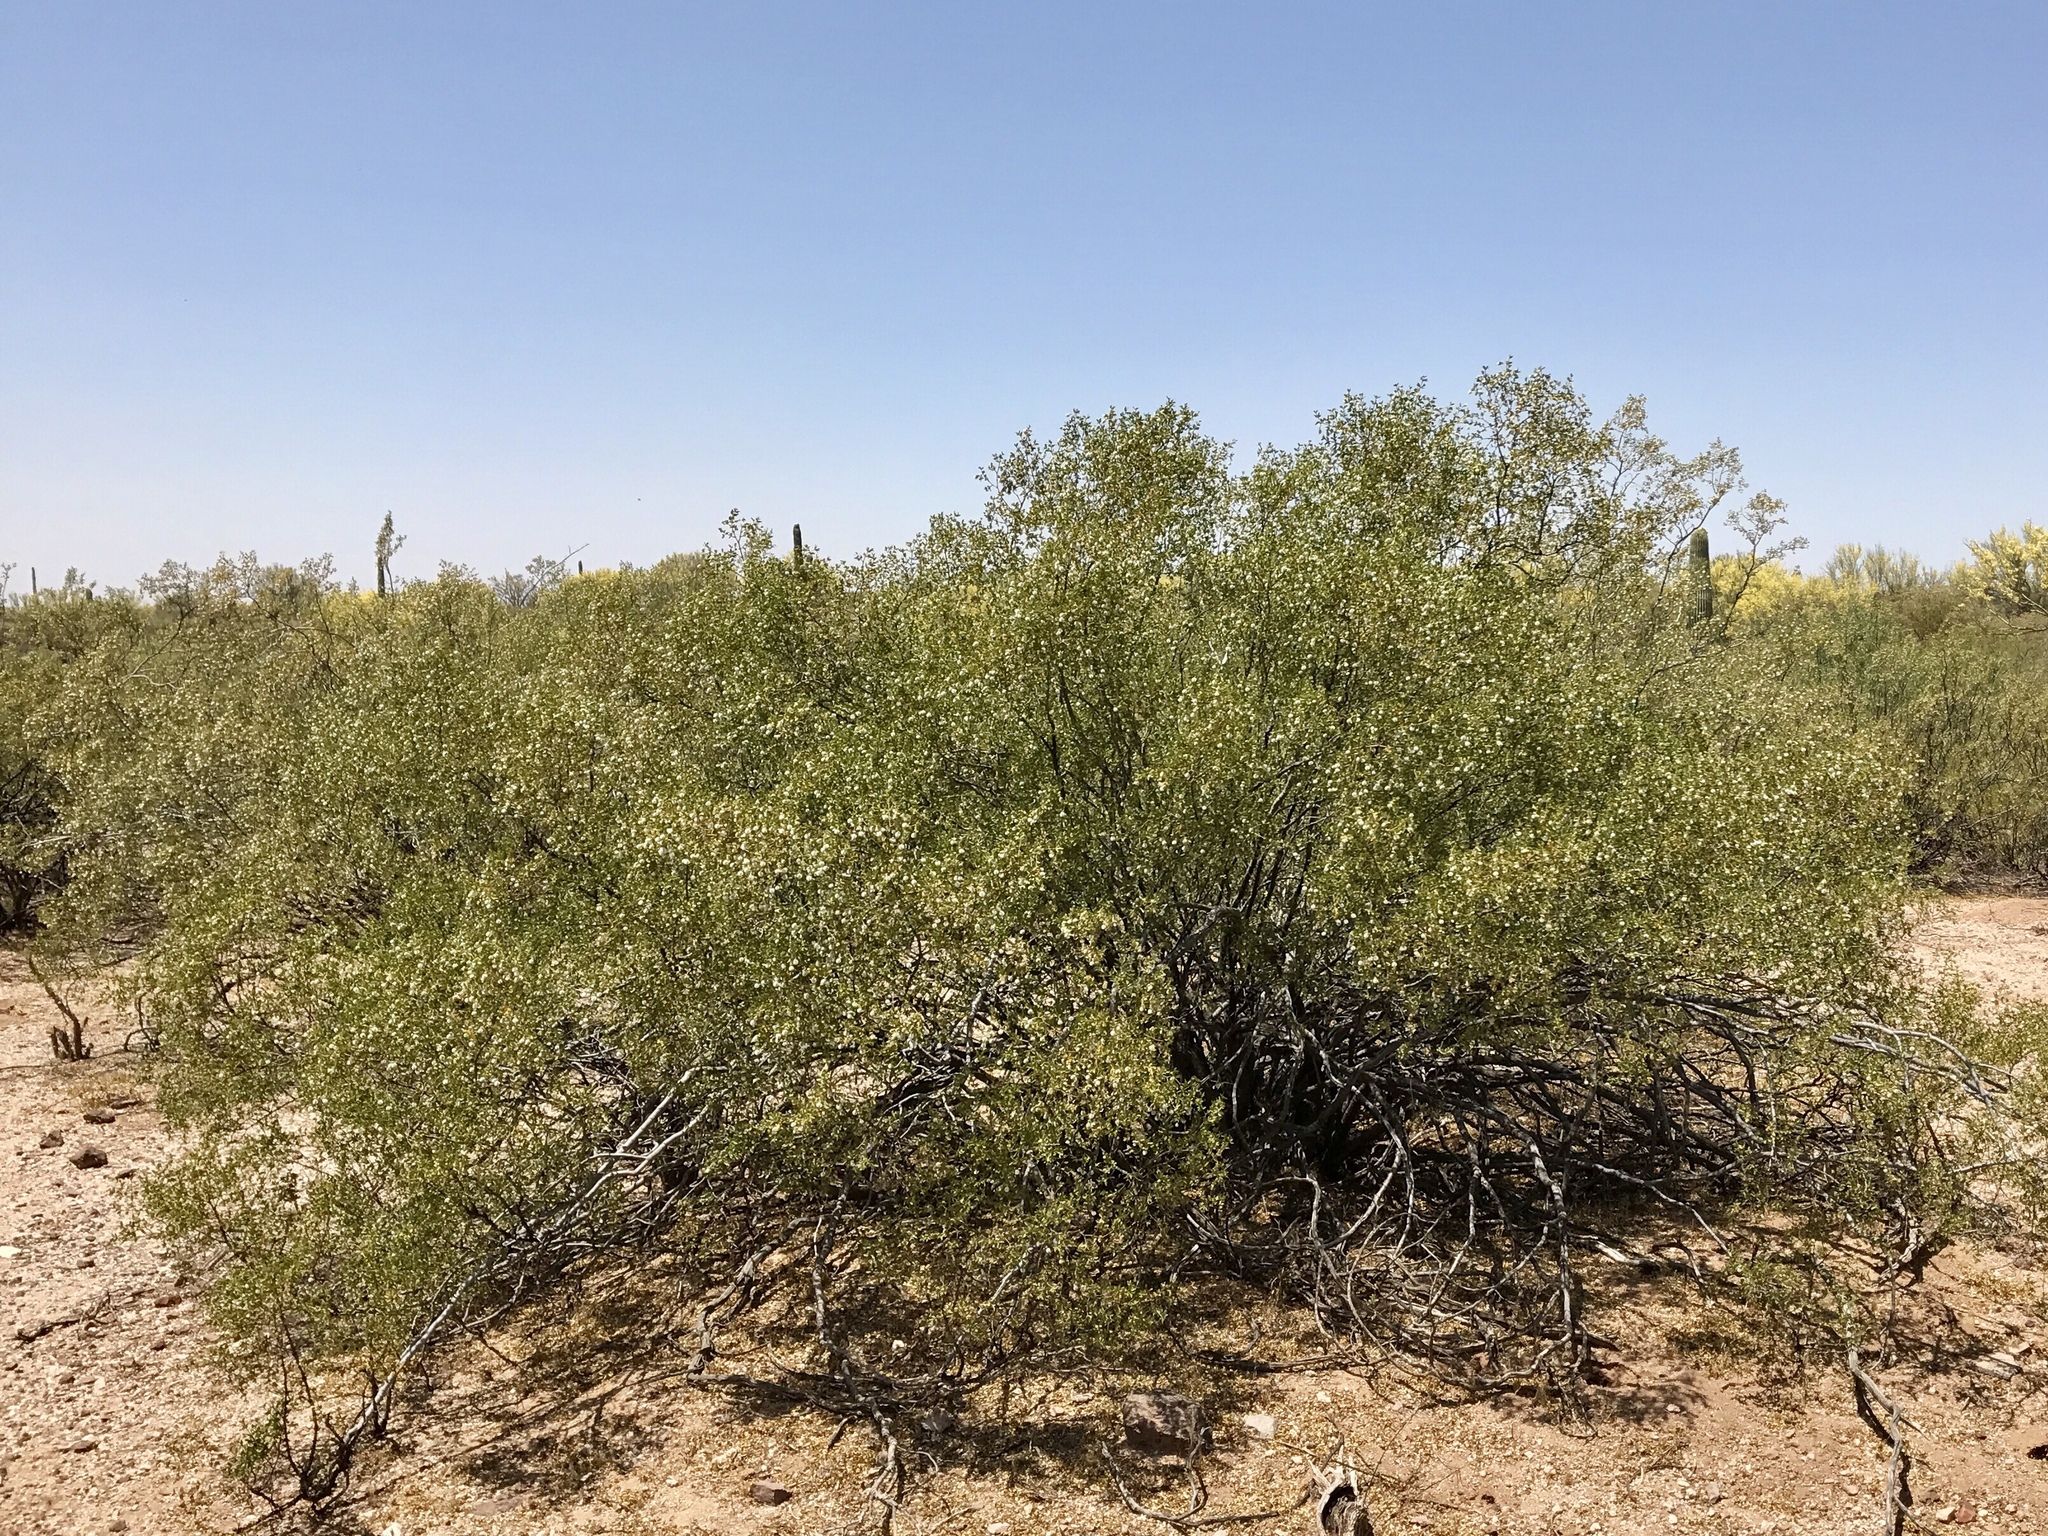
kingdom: Plantae
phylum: Tracheophyta
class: Magnoliopsida
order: Zygophyllales
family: Zygophyllaceae
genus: Larrea
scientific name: Larrea tridentata
